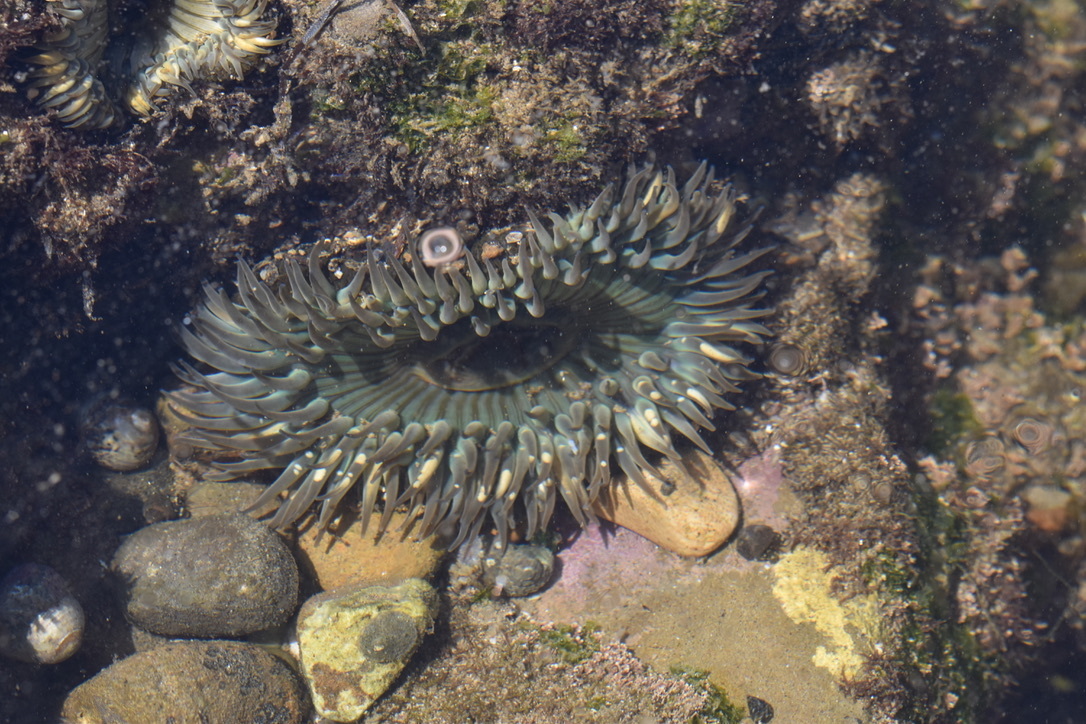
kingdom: Animalia
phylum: Cnidaria
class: Anthozoa
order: Actiniaria
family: Actiniidae
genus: Anthopleura
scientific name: Anthopleura sola
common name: Sun anemone
